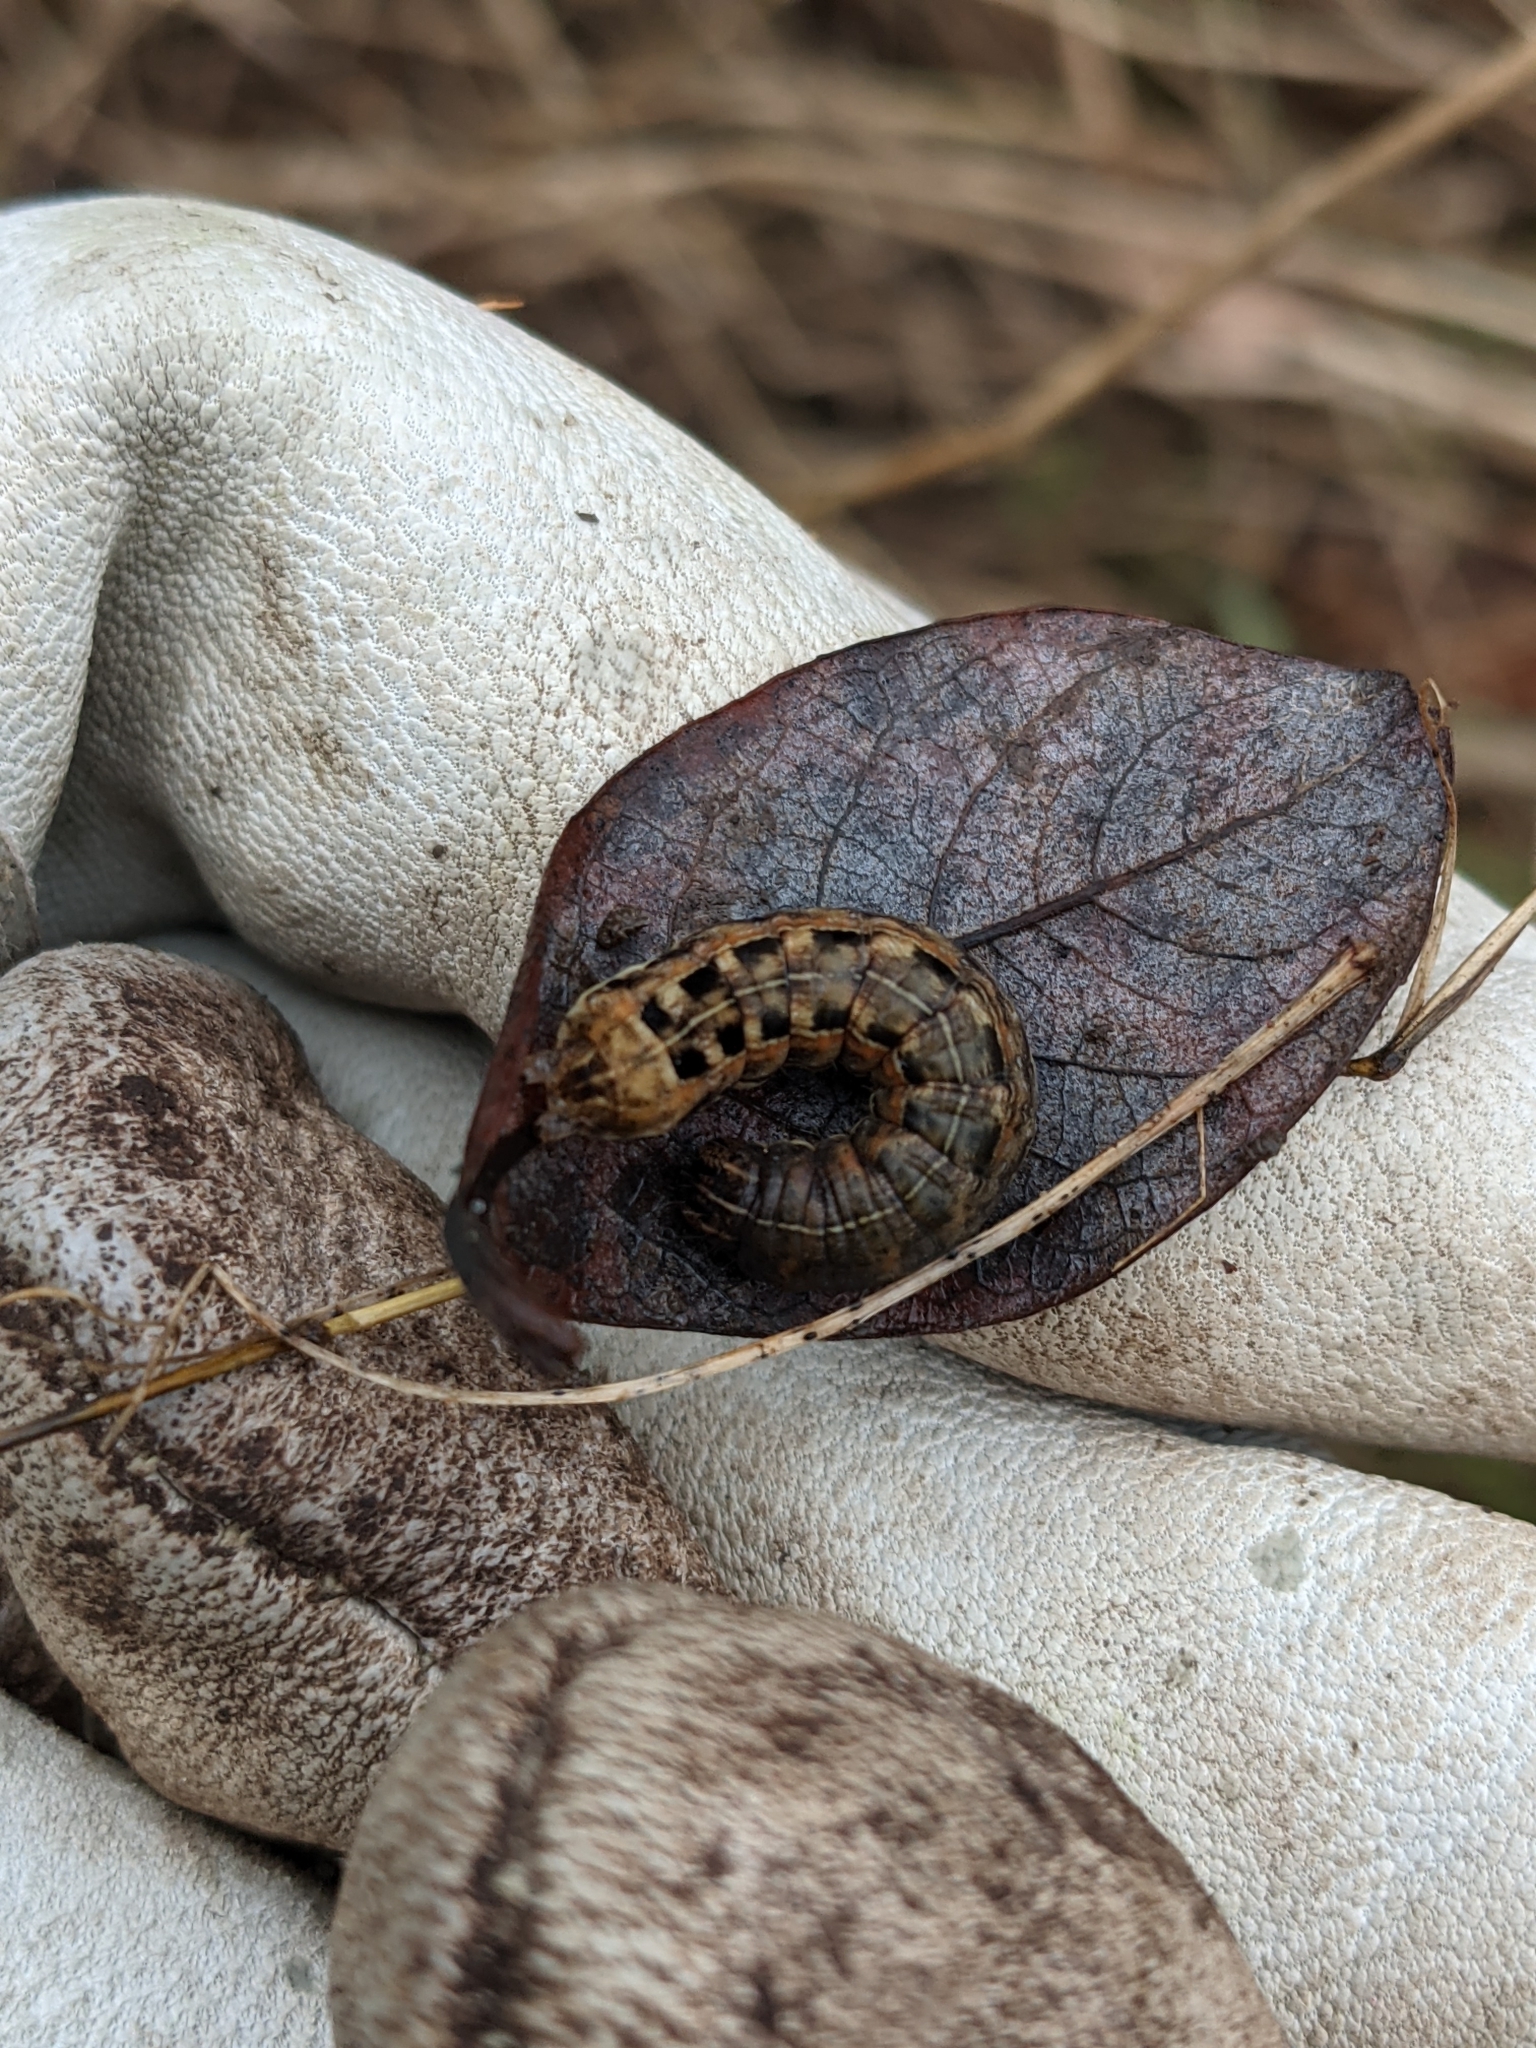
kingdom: Animalia
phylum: Arthropoda
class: Insecta
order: Lepidoptera
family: Noctuidae
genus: Noctua
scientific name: Noctua pronuba
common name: Large yellow underwing
